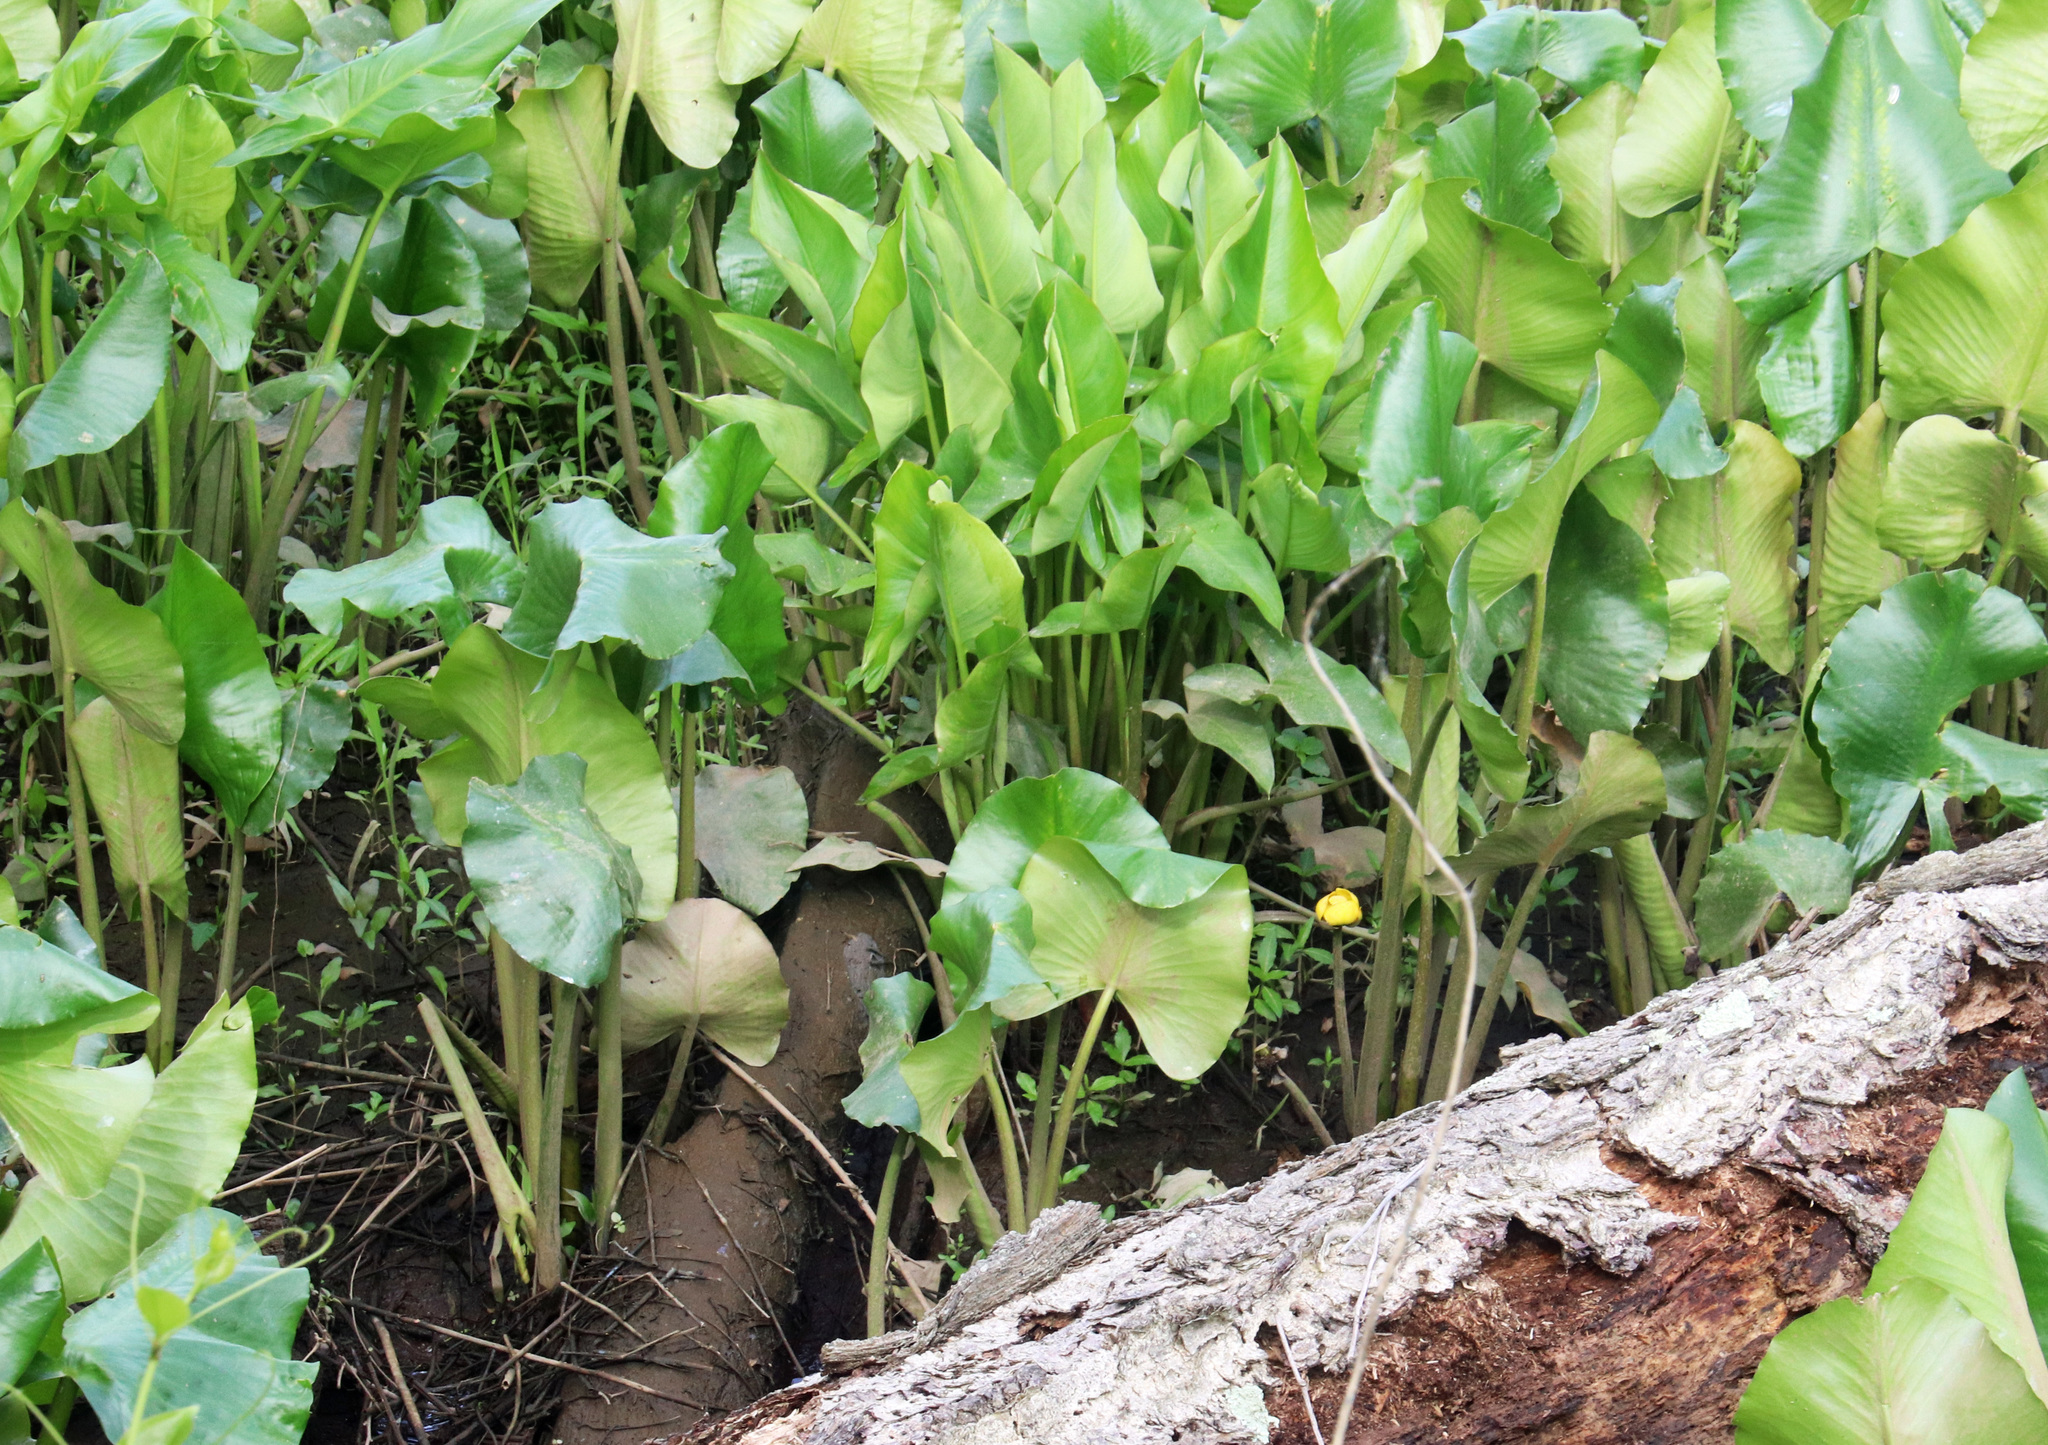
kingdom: Plantae
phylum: Tracheophyta
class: Magnoliopsida
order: Nymphaeales
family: Nymphaeaceae
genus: Nuphar
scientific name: Nuphar advena
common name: Spatter-dock
